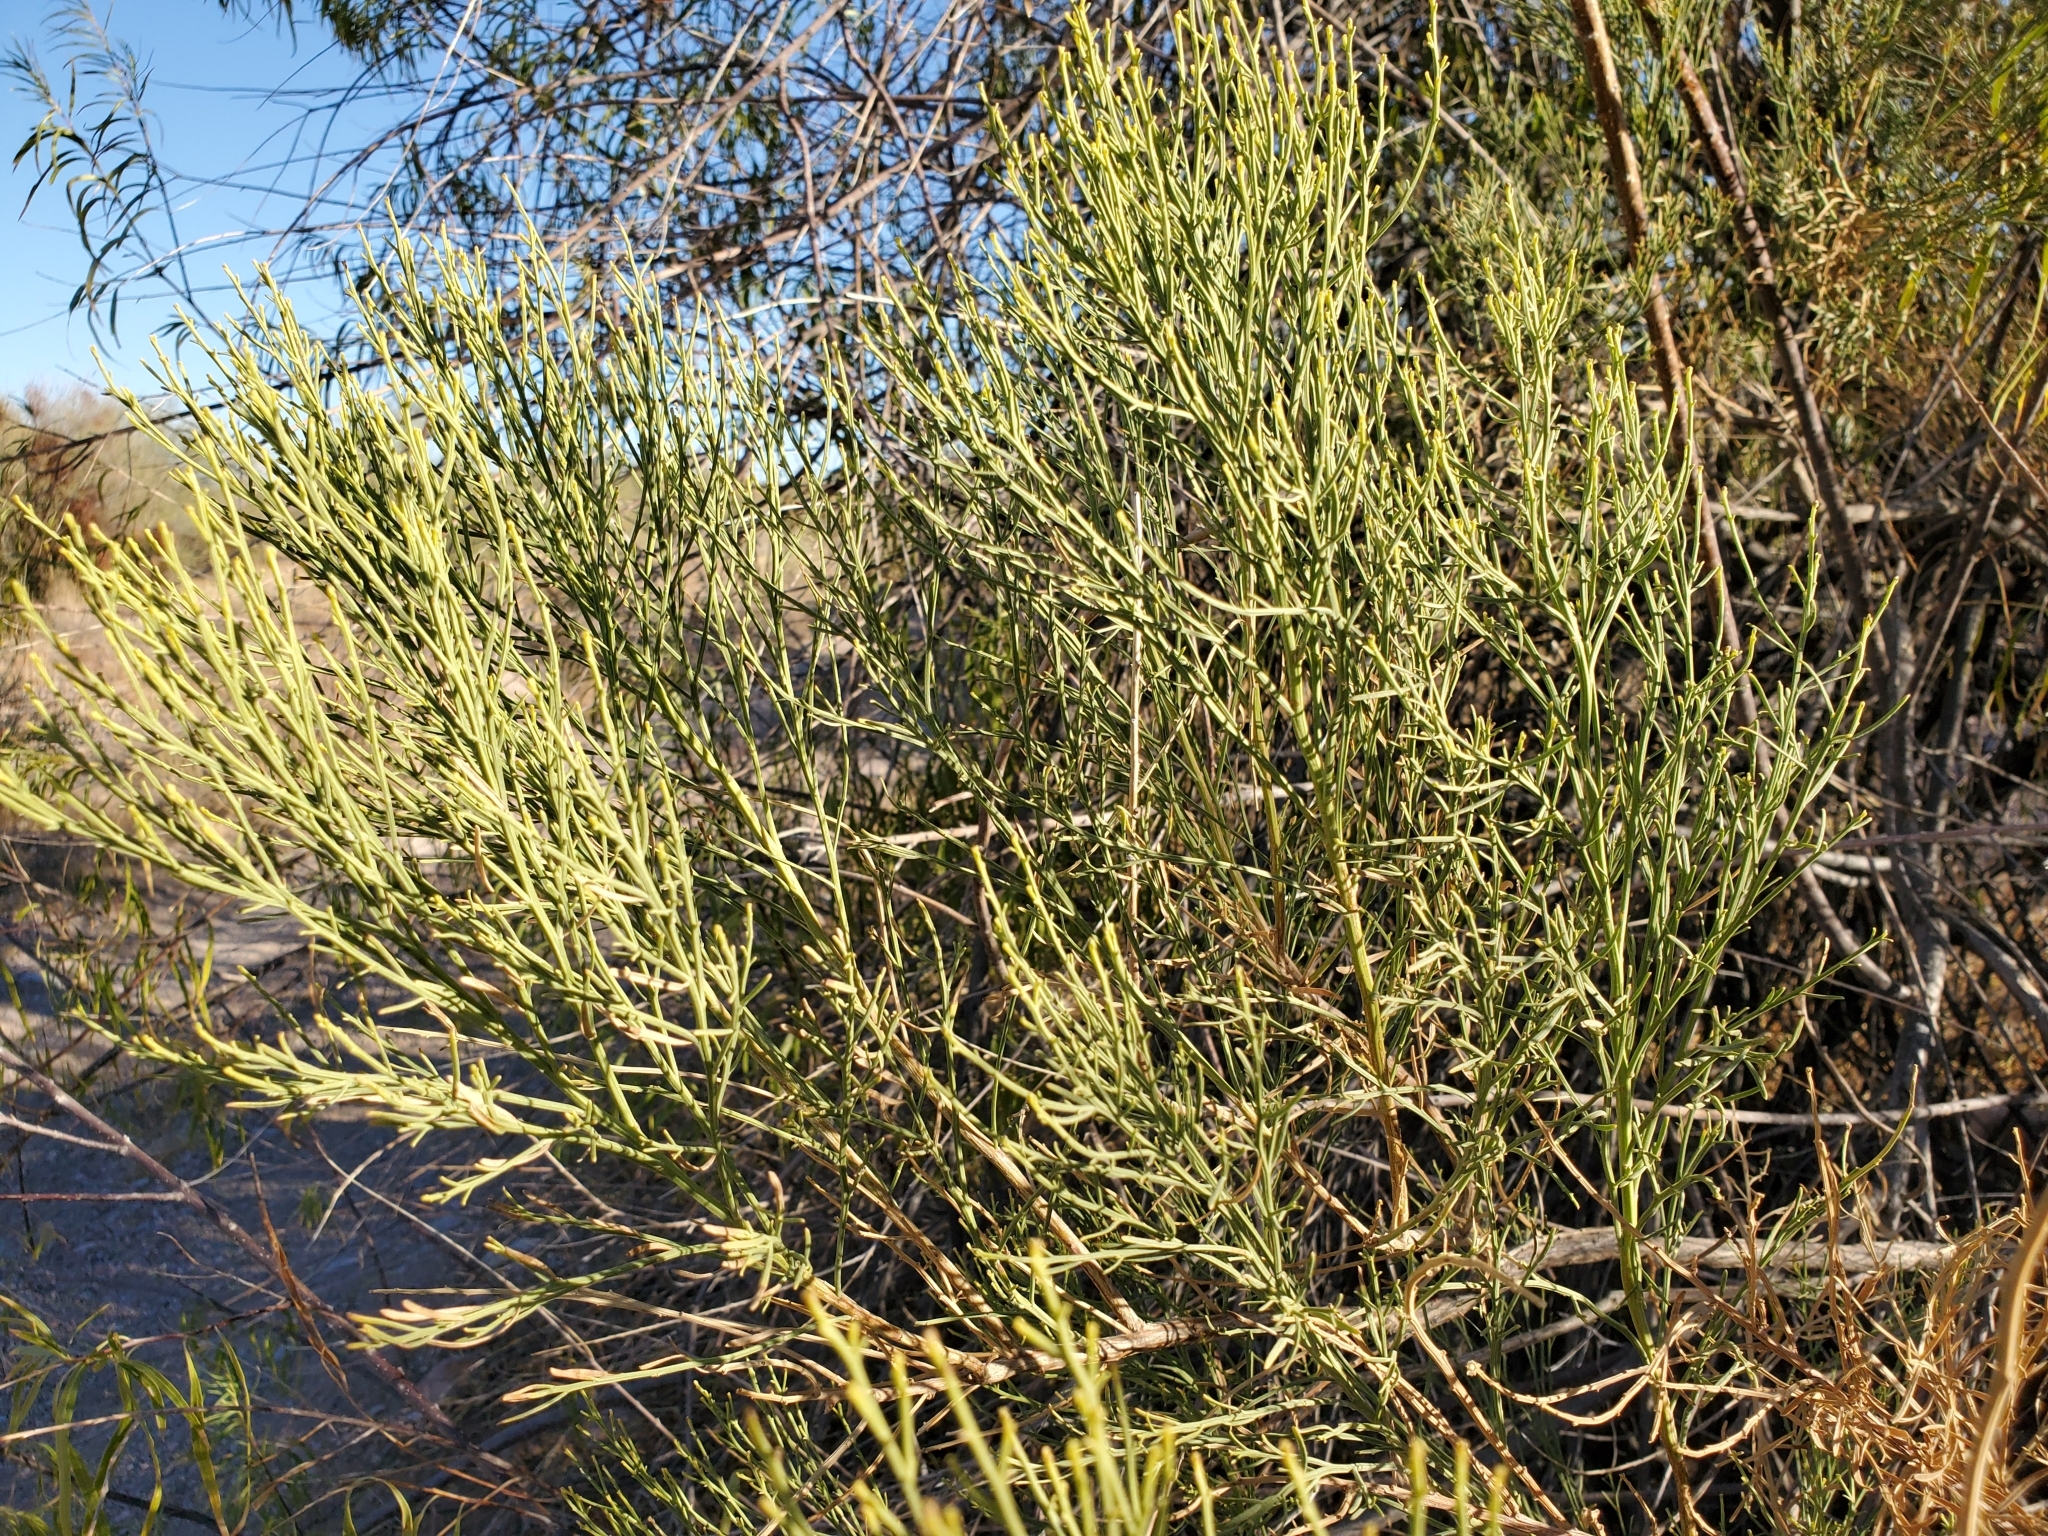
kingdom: Plantae
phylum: Tracheophyta
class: Magnoliopsida
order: Asterales
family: Asteraceae
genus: Baccharis
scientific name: Baccharis sarothroides
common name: Desert-broom
